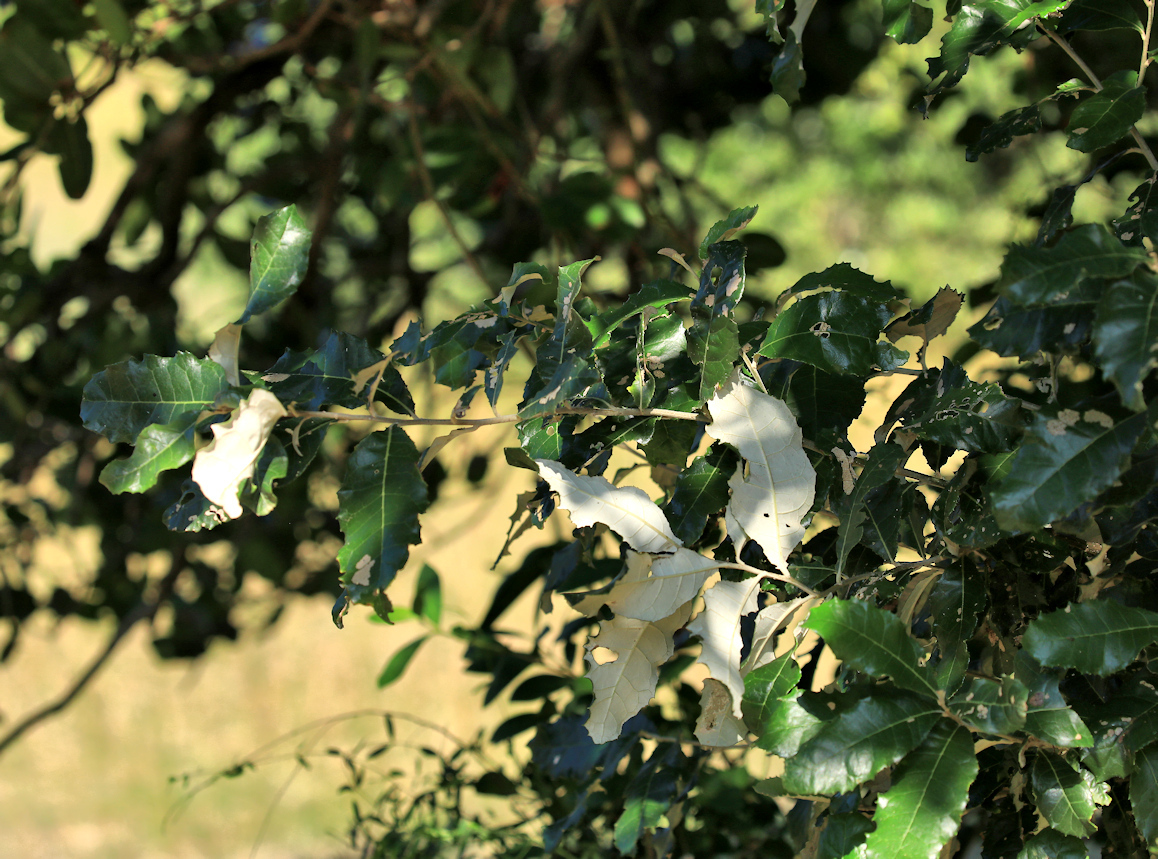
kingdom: Plantae
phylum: Tracheophyta
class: Magnoliopsida
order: Asterales
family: Asteraceae
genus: Brachylaena
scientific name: Brachylaena discolor
